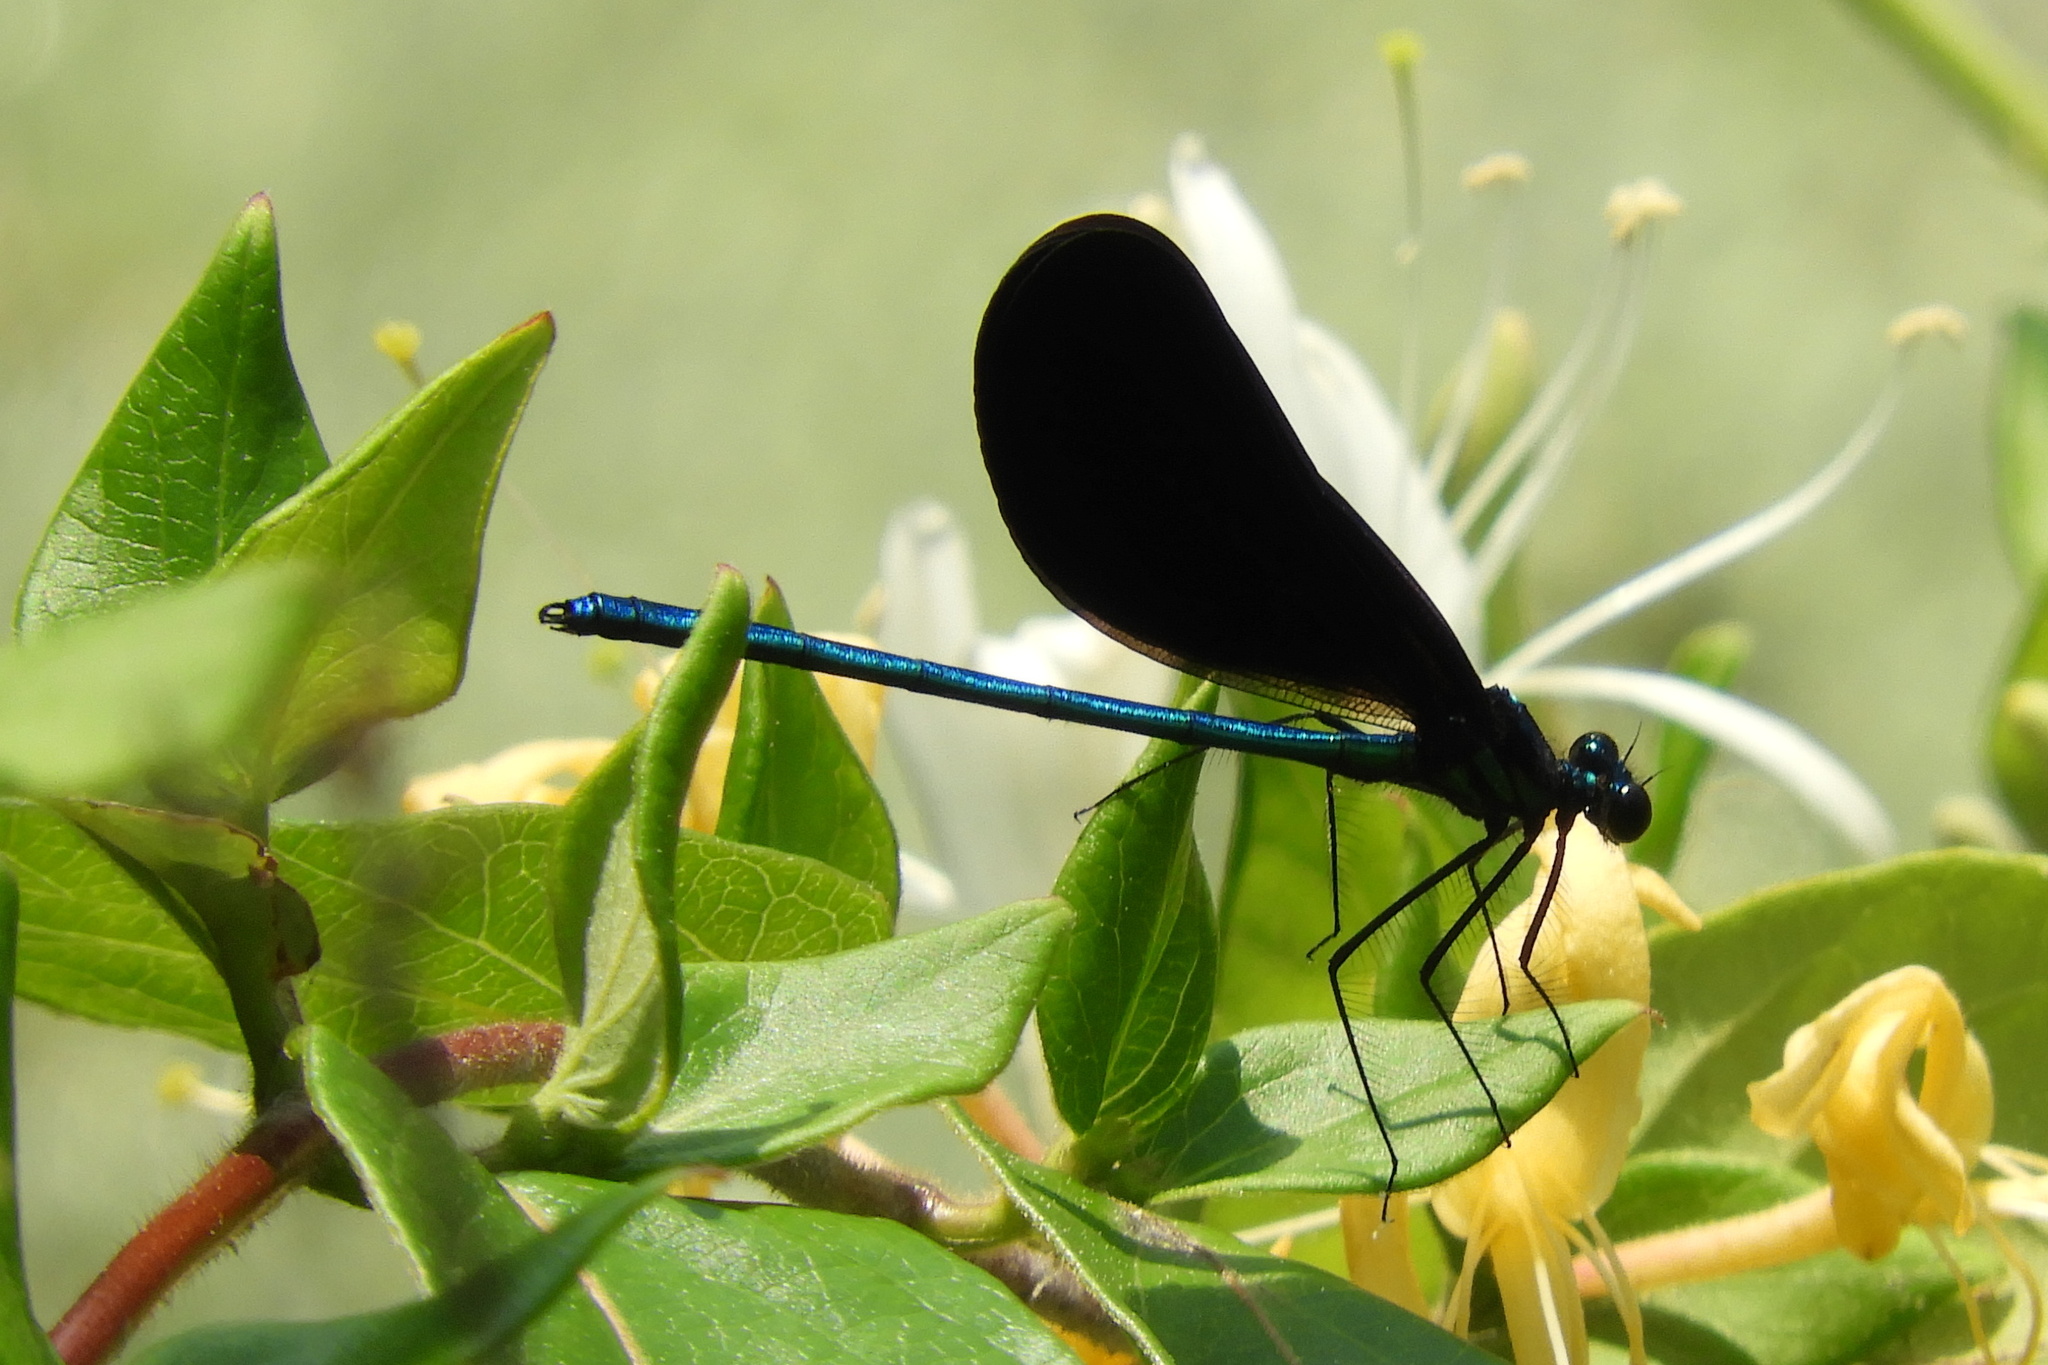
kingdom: Animalia
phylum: Arthropoda
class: Insecta
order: Odonata
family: Calopterygidae
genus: Calopteryx
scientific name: Calopteryx maculata
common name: Ebony jewelwing
